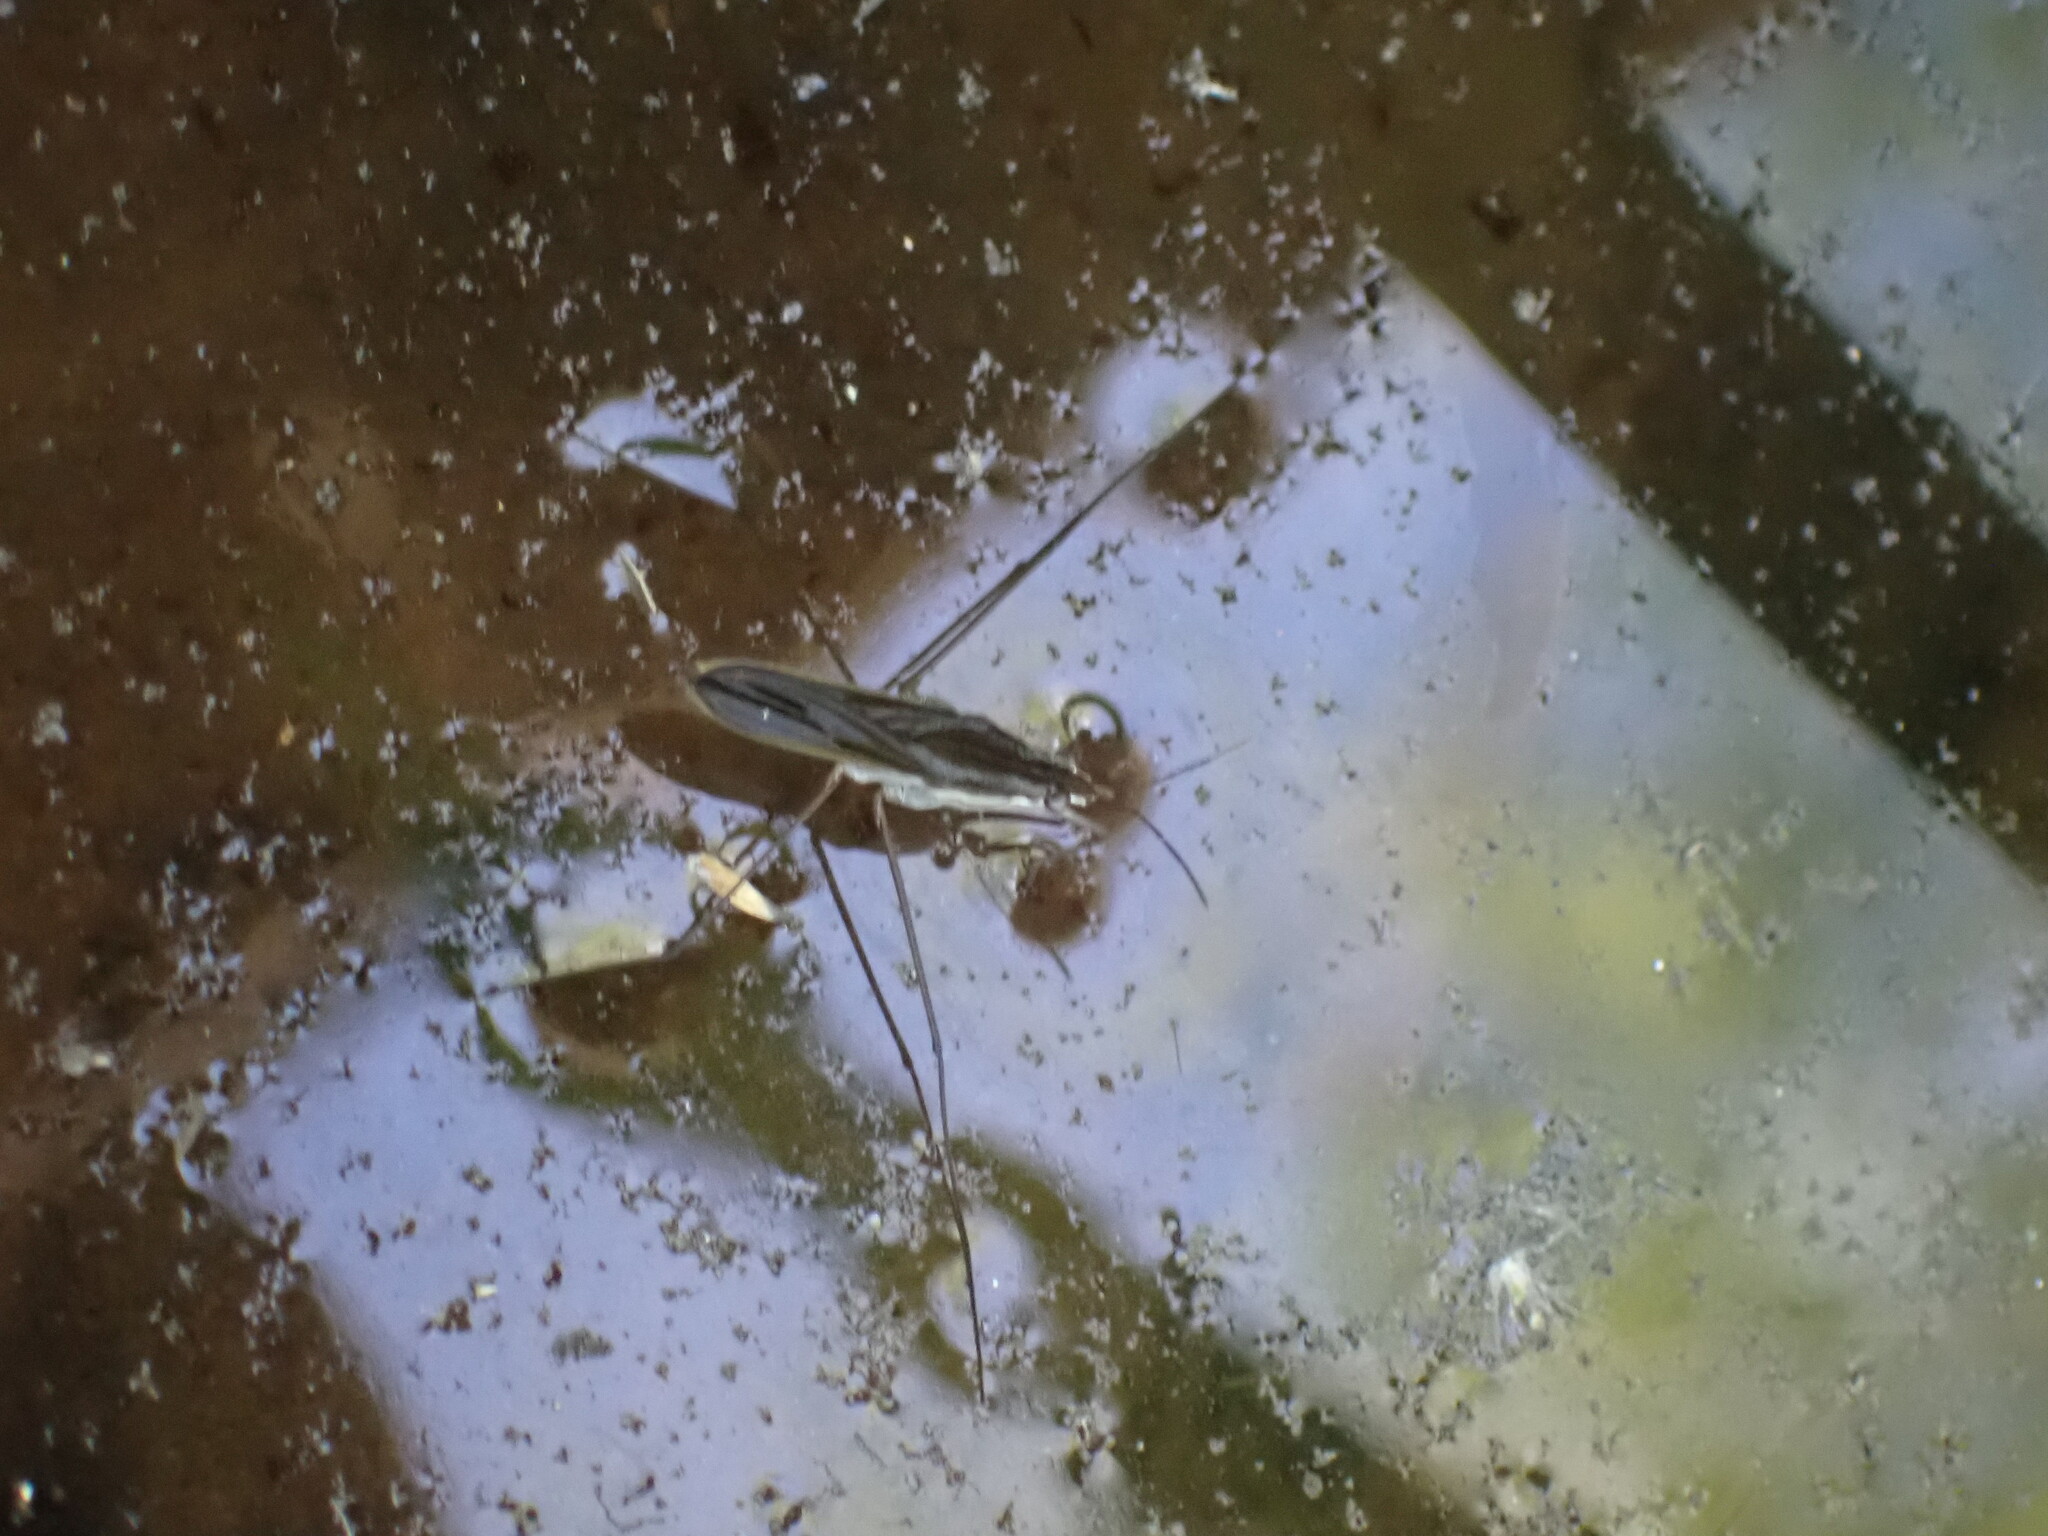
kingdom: Animalia
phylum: Arthropoda
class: Insecta
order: Hemiptera
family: Gerridae
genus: Gerris
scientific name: Gerris
